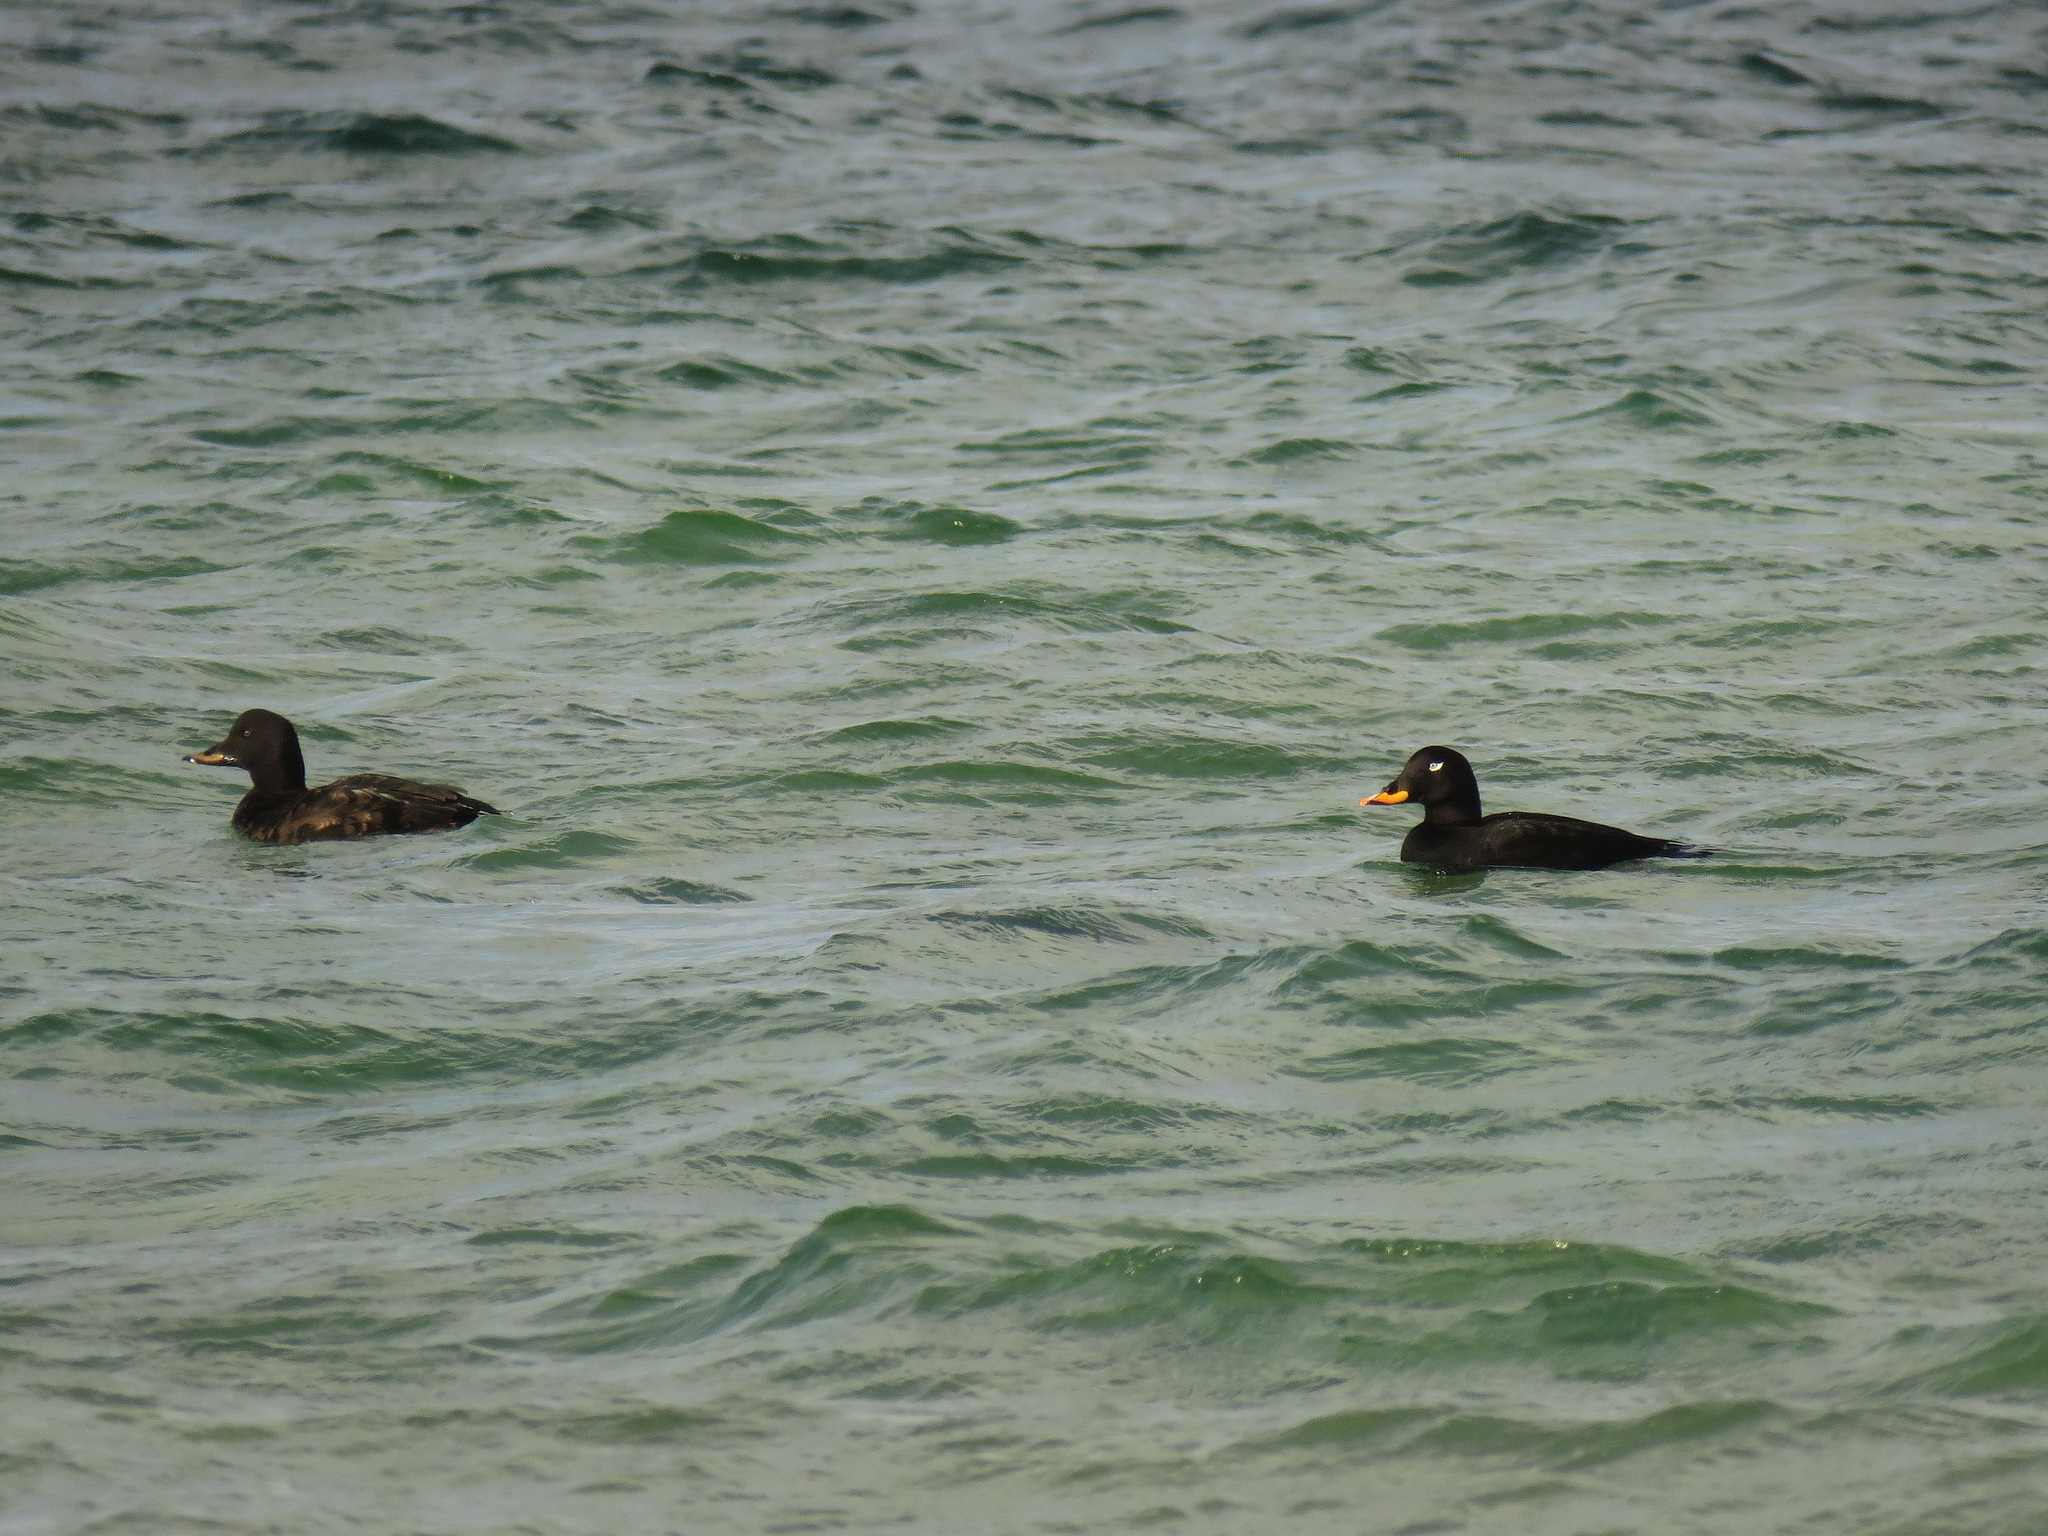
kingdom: Animalia
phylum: Chordata
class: Aves
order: Anseriformes
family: Anatidae
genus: Melanitta
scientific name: Melanitta fusca
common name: Velvet scoter
